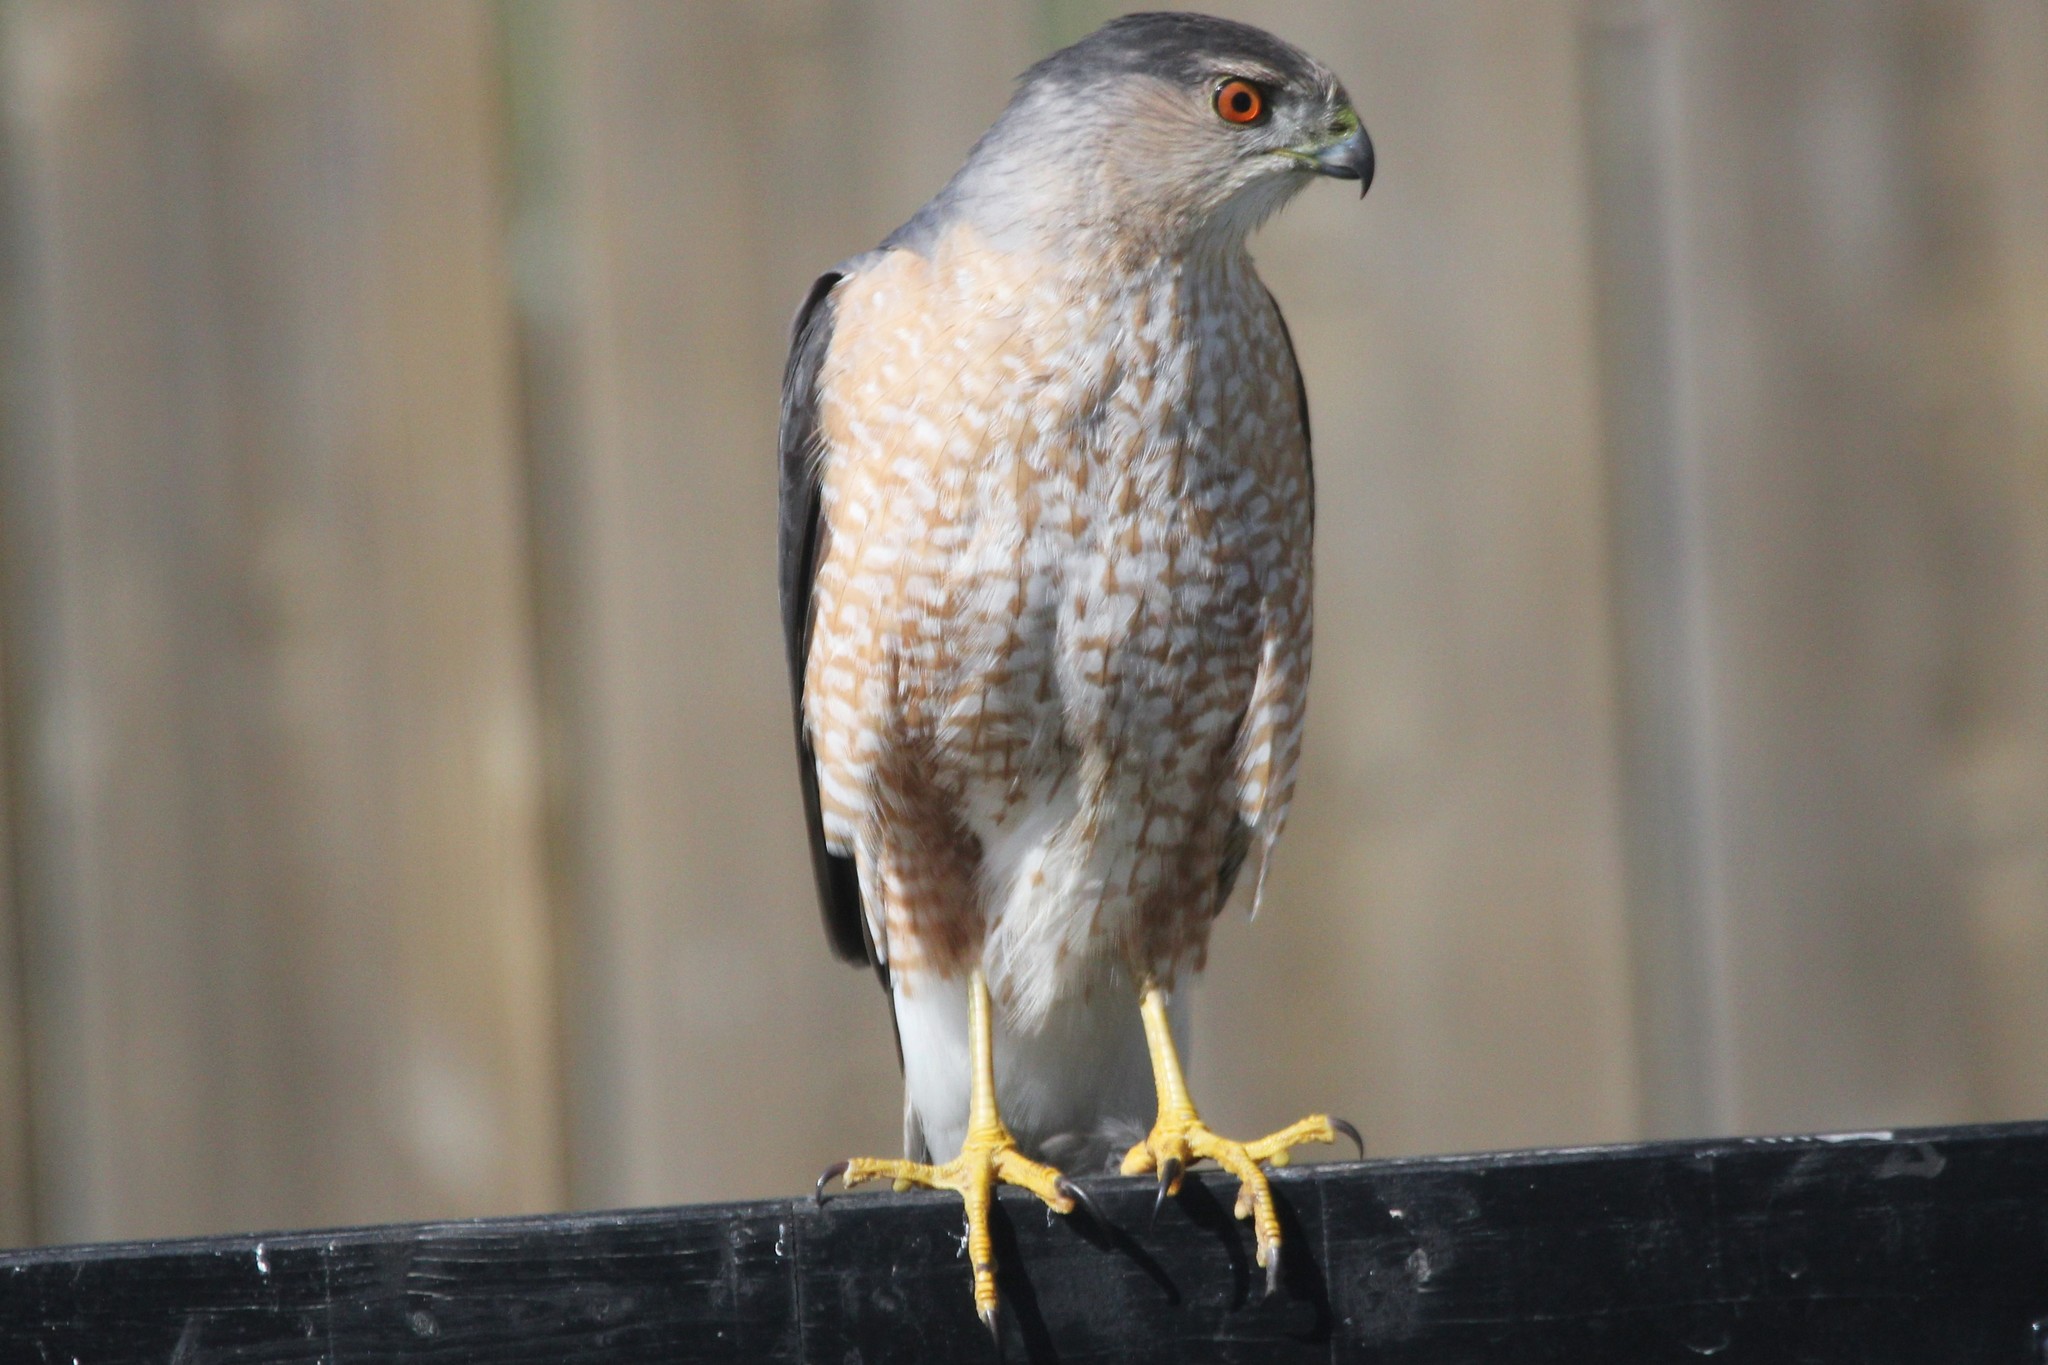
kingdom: Animalia
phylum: Chordata
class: Aves
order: Accipitriformes
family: Accipitridae
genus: Accipiter
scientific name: Accipiter cooperii
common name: Cooper's hawk
